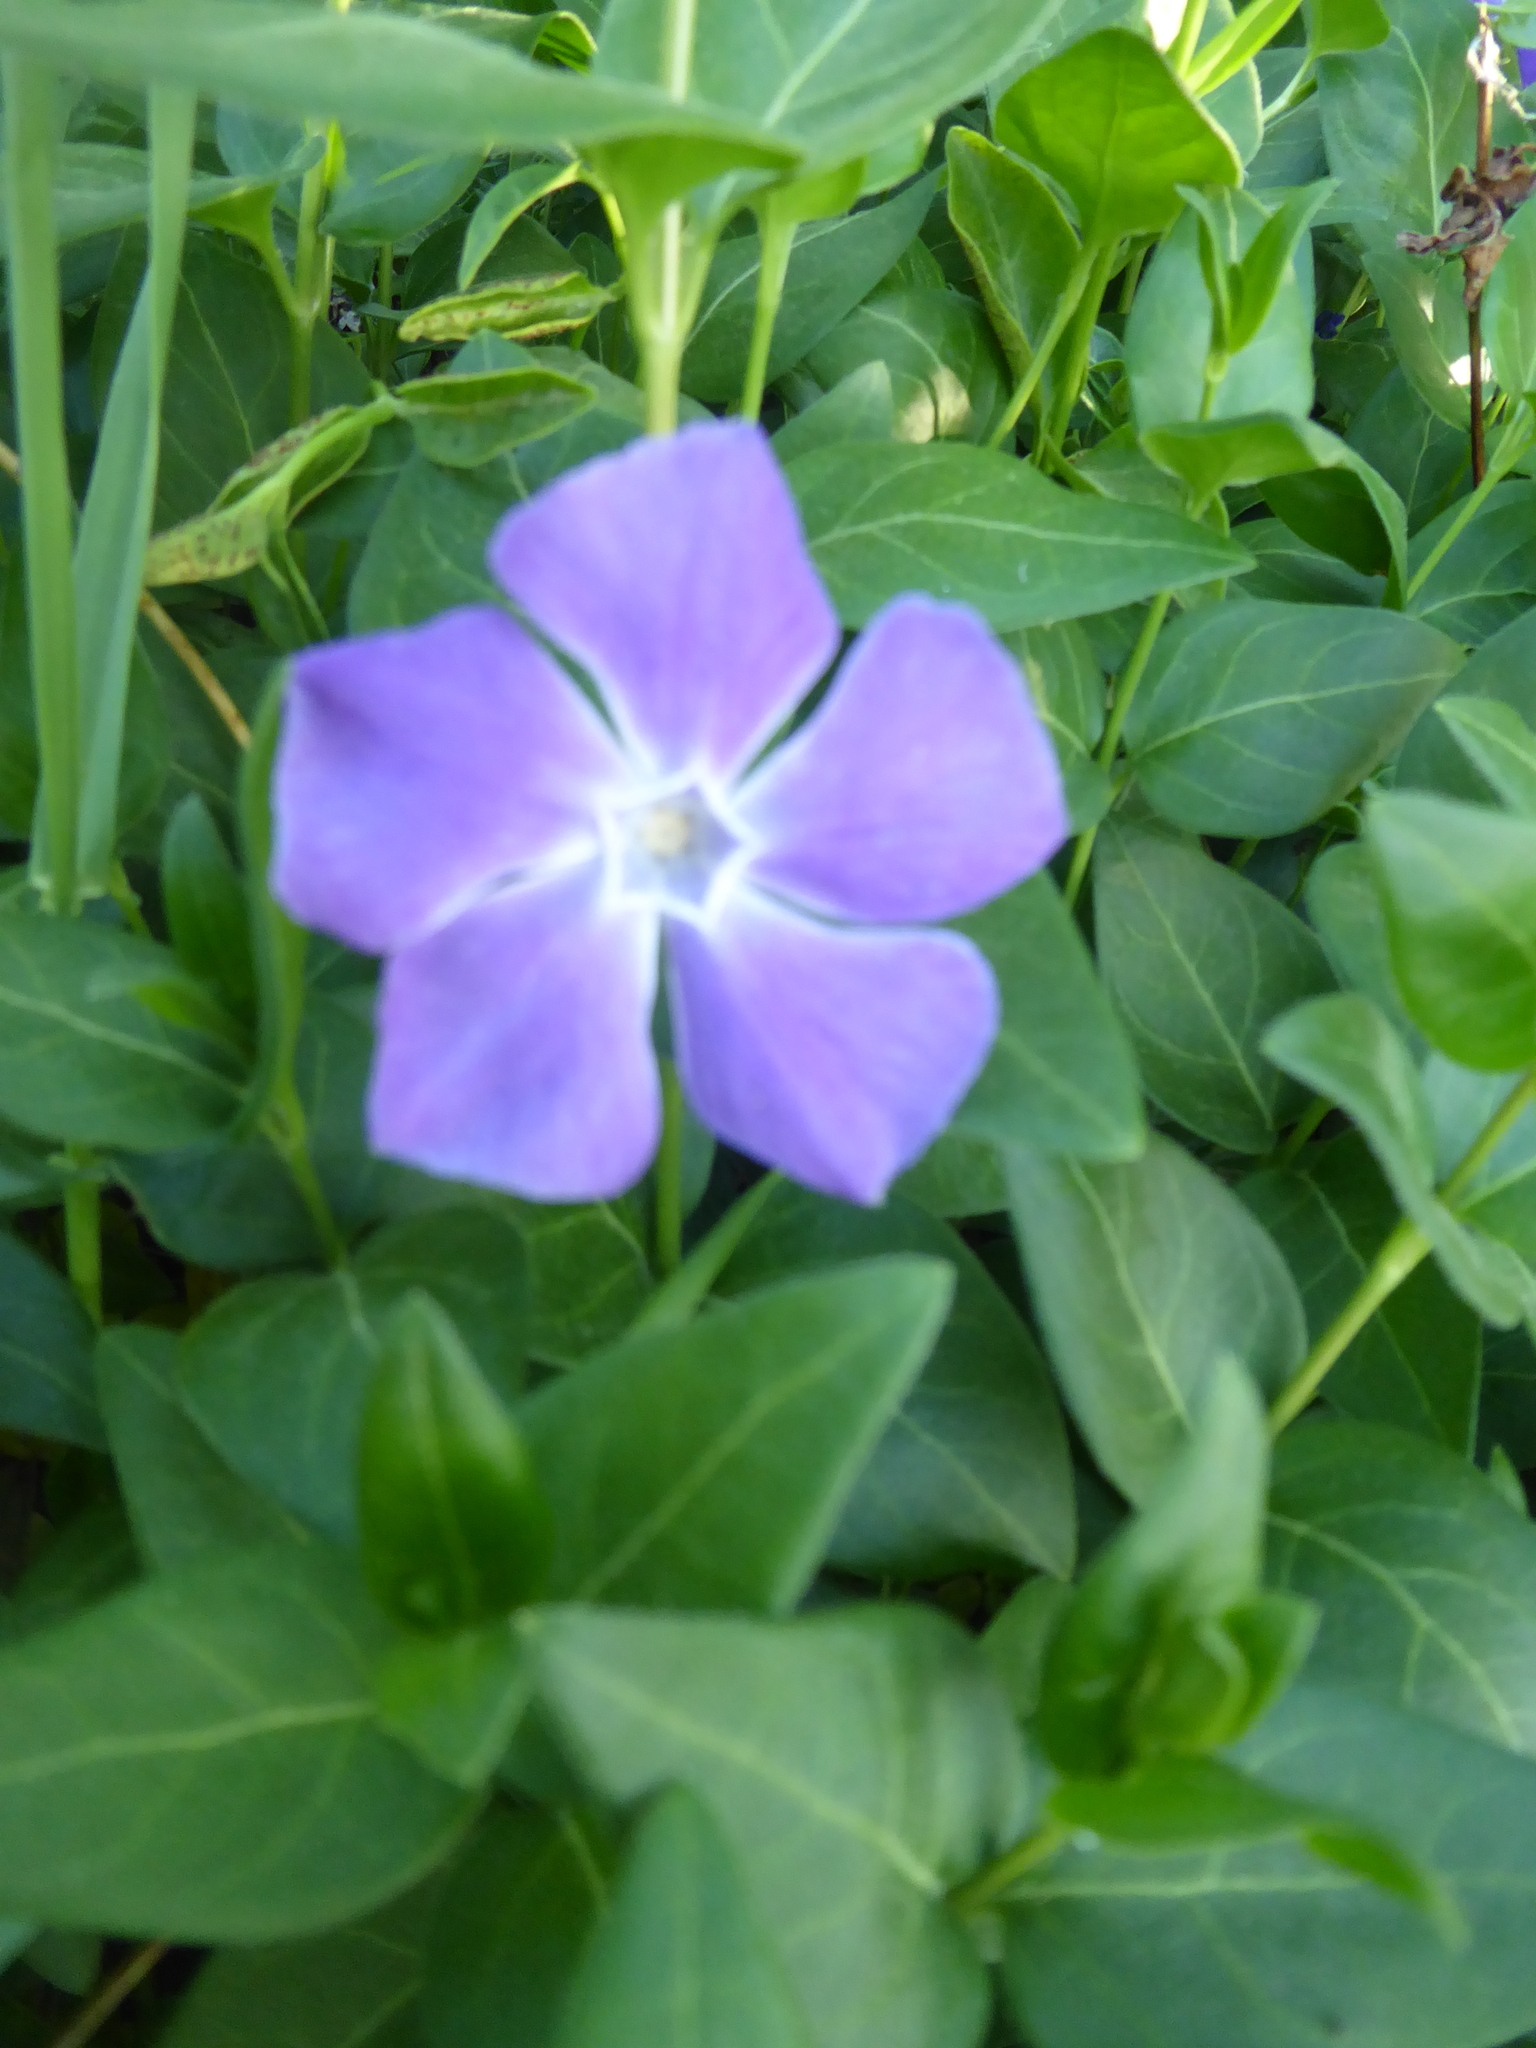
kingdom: Plantae
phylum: Tracheophyta
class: Magnoliopsida
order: Gentianales
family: Apocynaceae
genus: Vinca
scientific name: Vinca major
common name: Greater periwinkle
